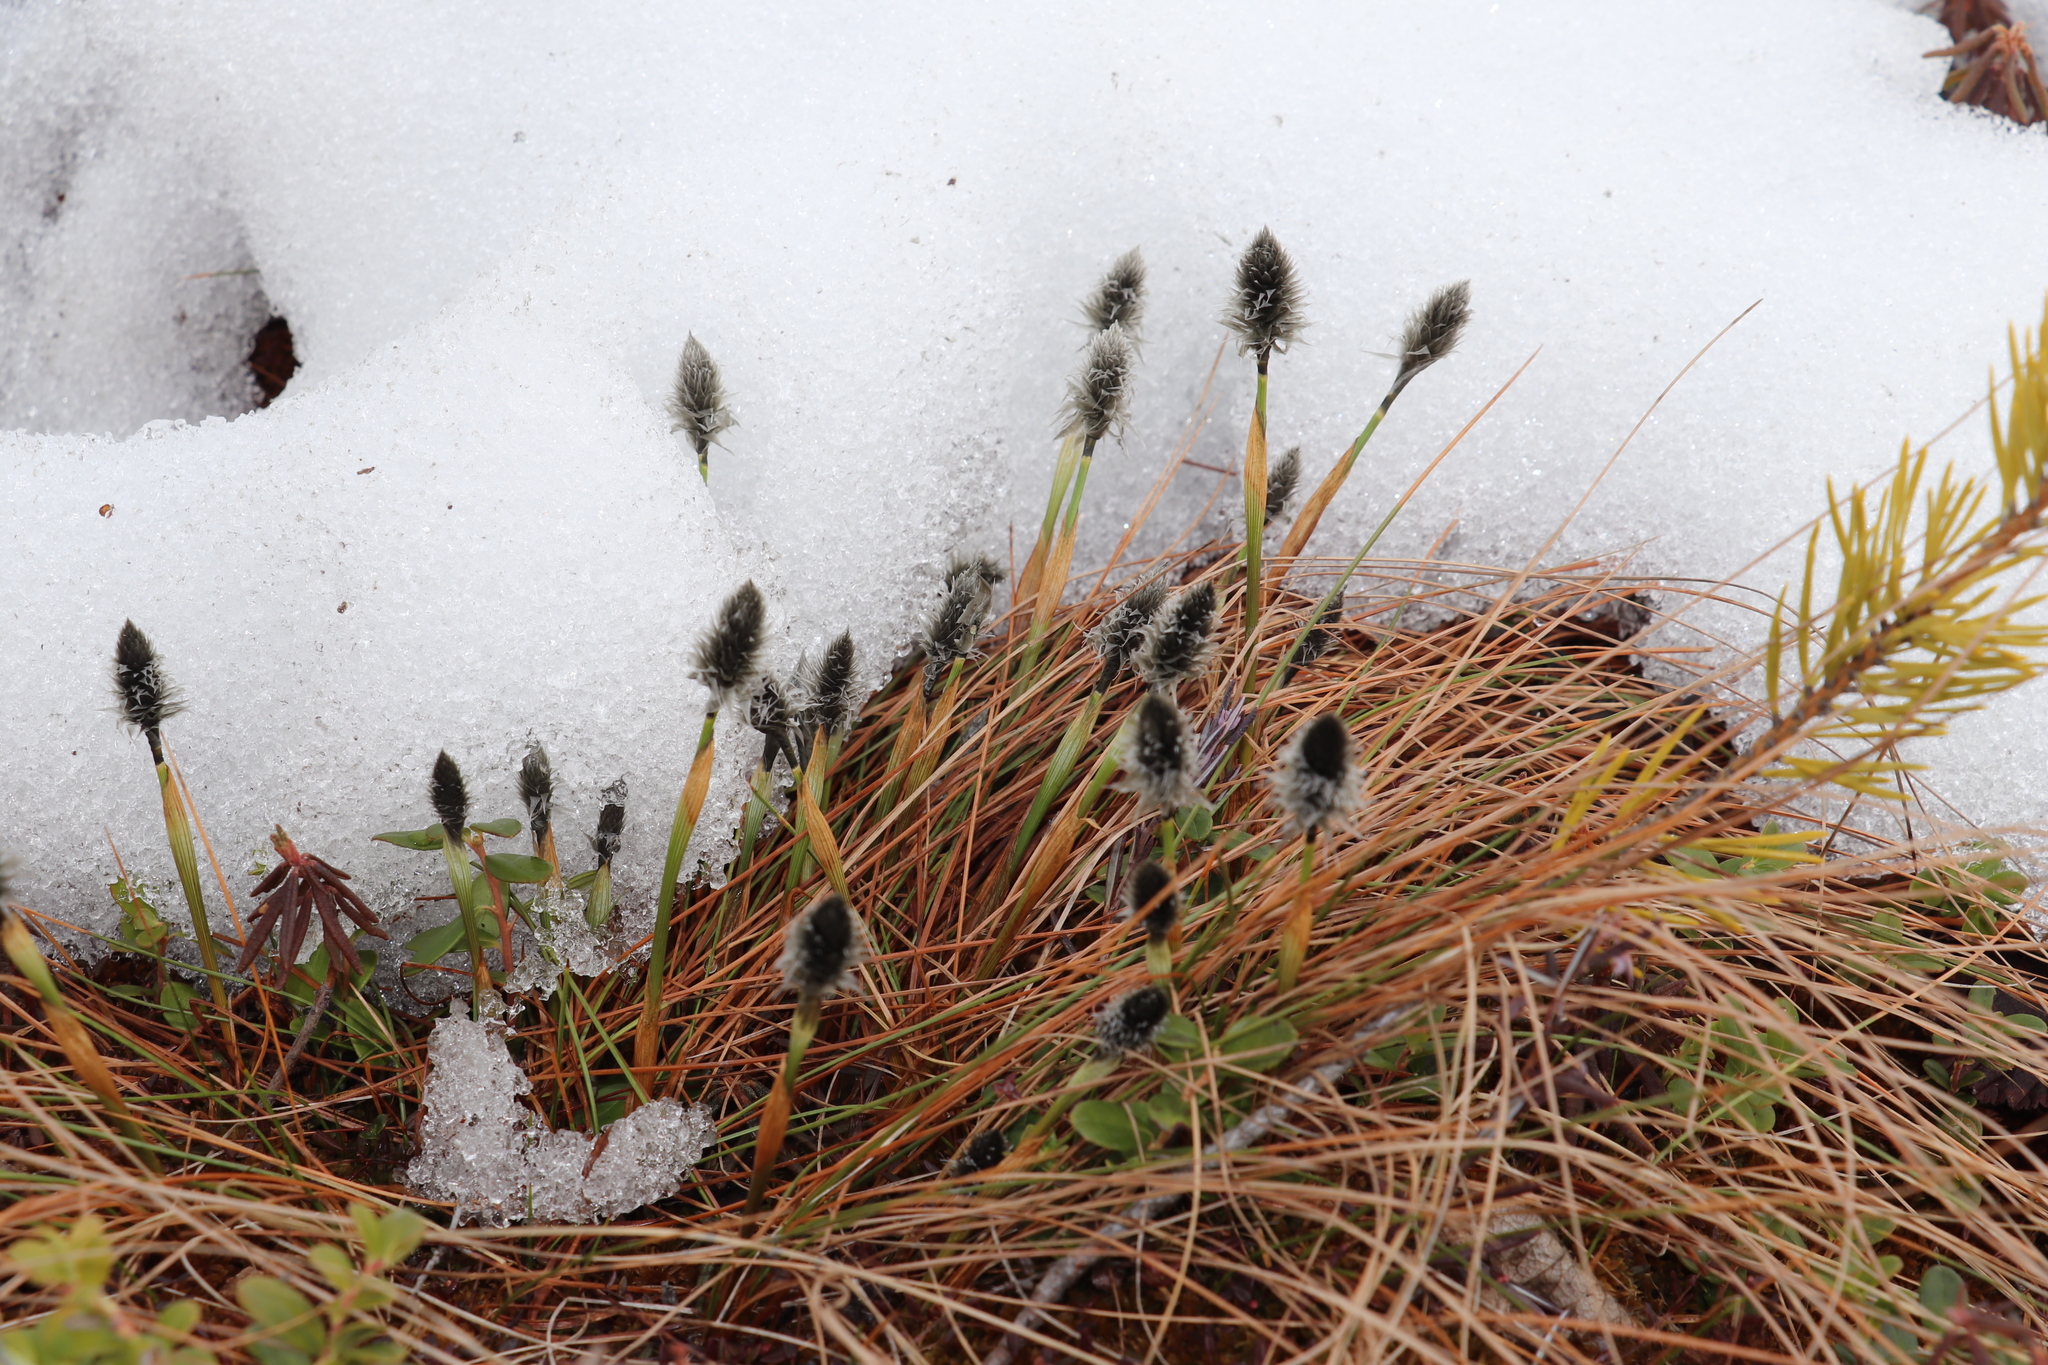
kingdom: Plantae
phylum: Tracheophyta
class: Liliopsida
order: Poales
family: Cyperaceae
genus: Eriophorum
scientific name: Eriophorum vaginatum
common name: Hare's-tail cottongrass
